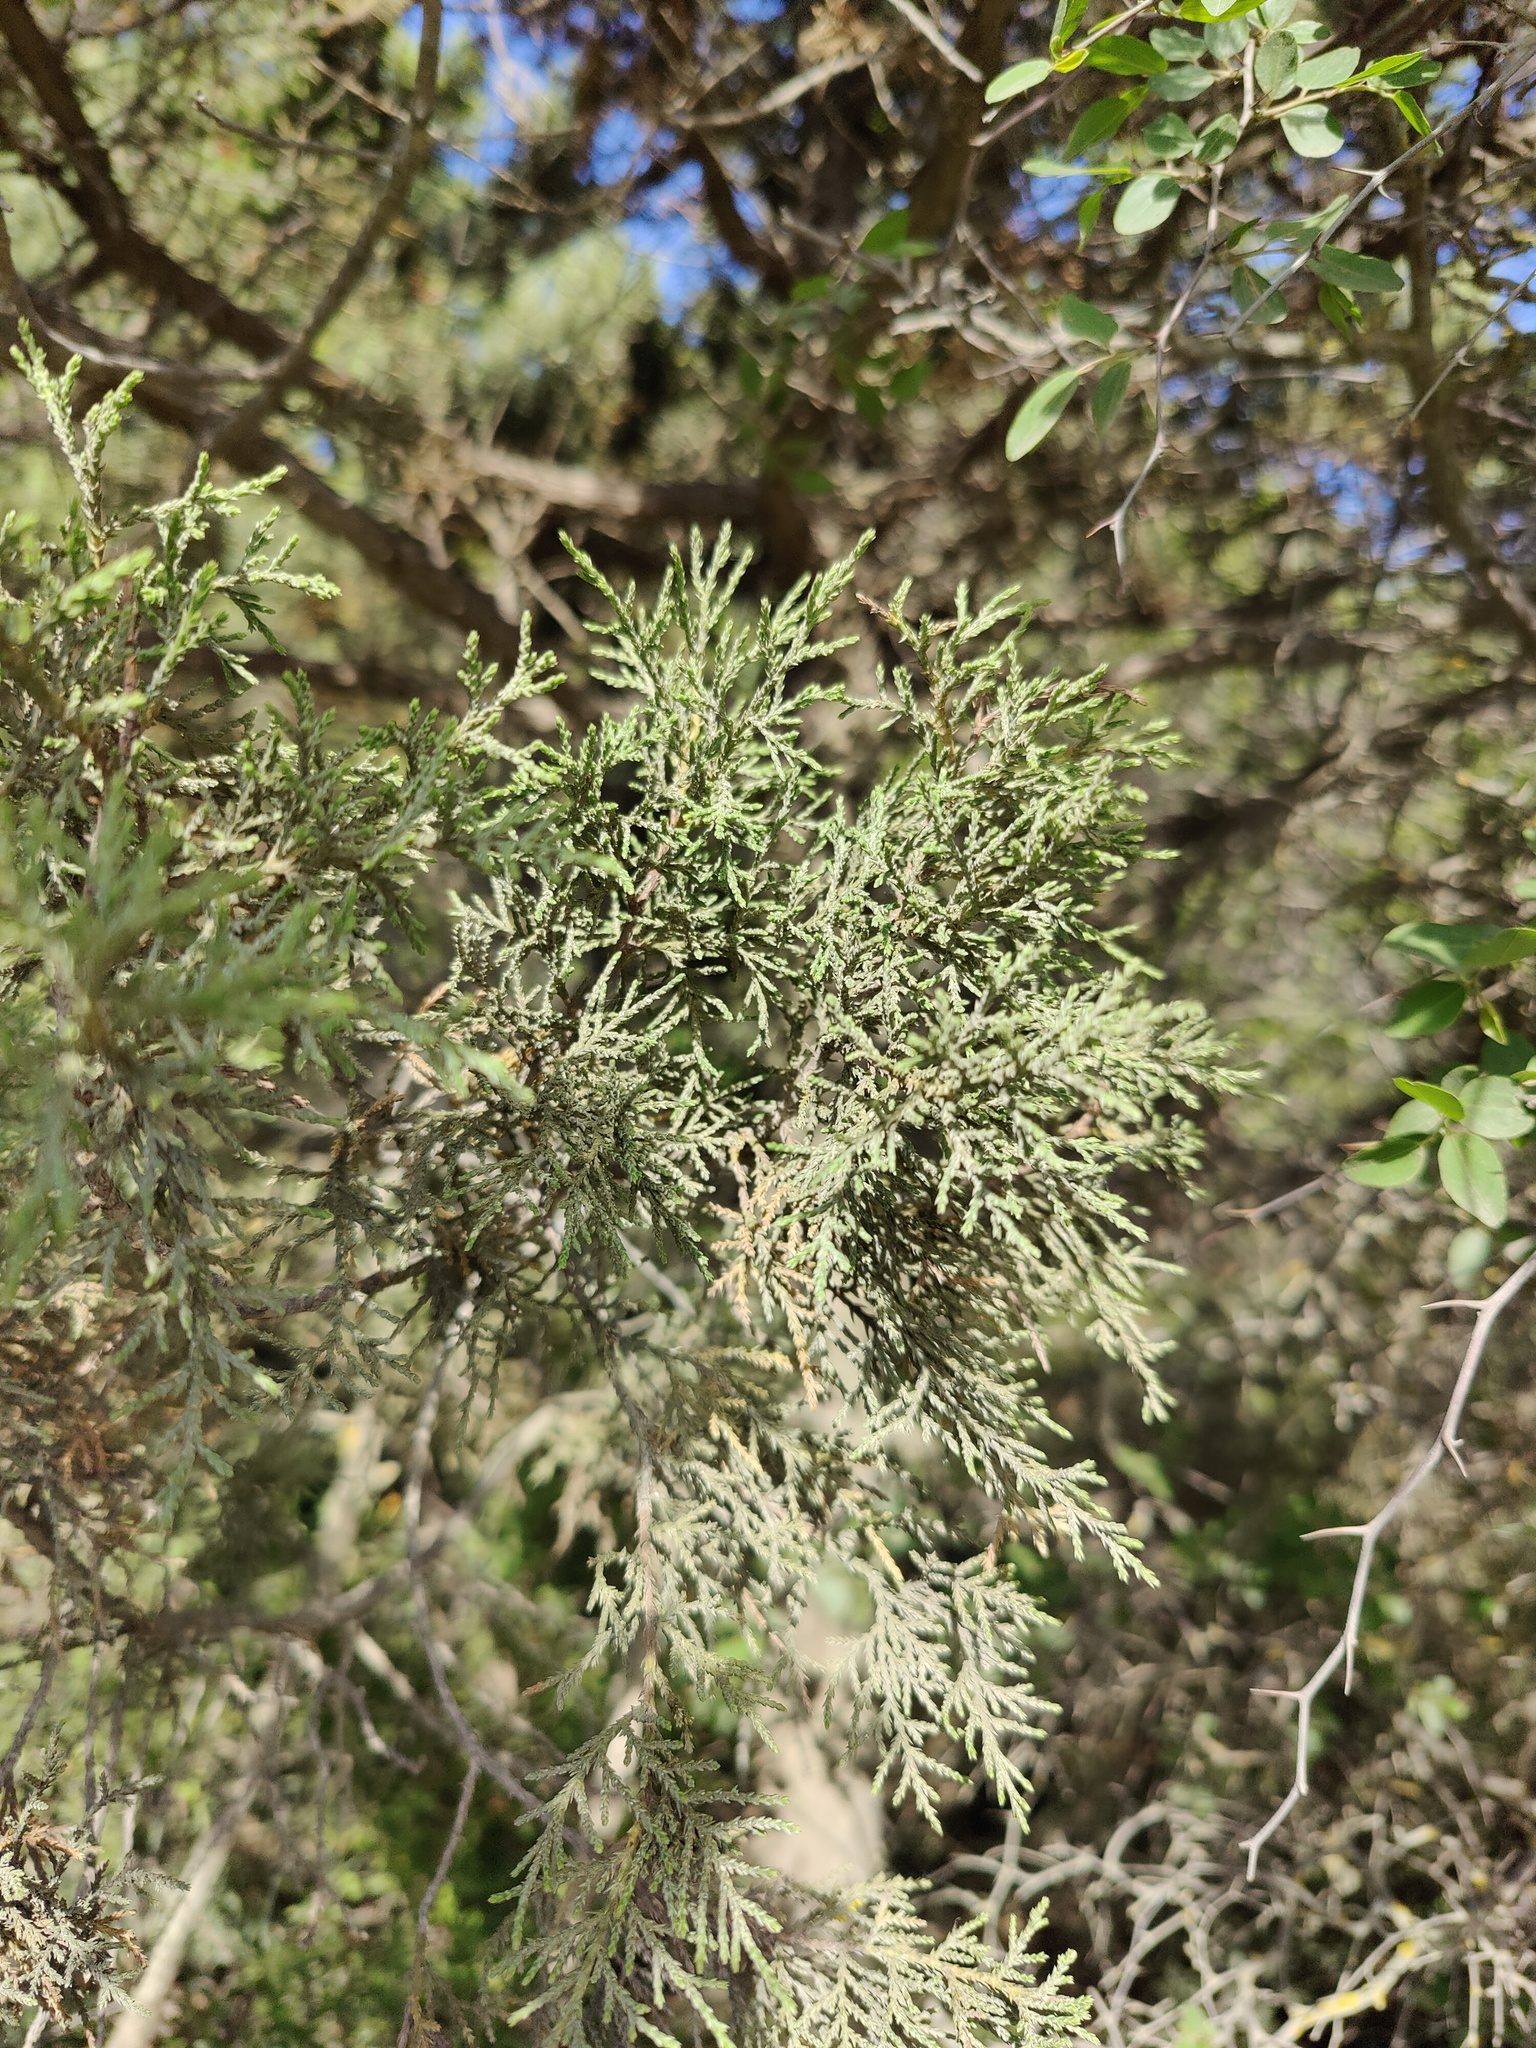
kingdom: Plantae
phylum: Tracheophyta
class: Pinopsida
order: Pinales
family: Cupressaceae
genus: Juniperus
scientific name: Juniperus excelsa
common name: Crimean juniper
